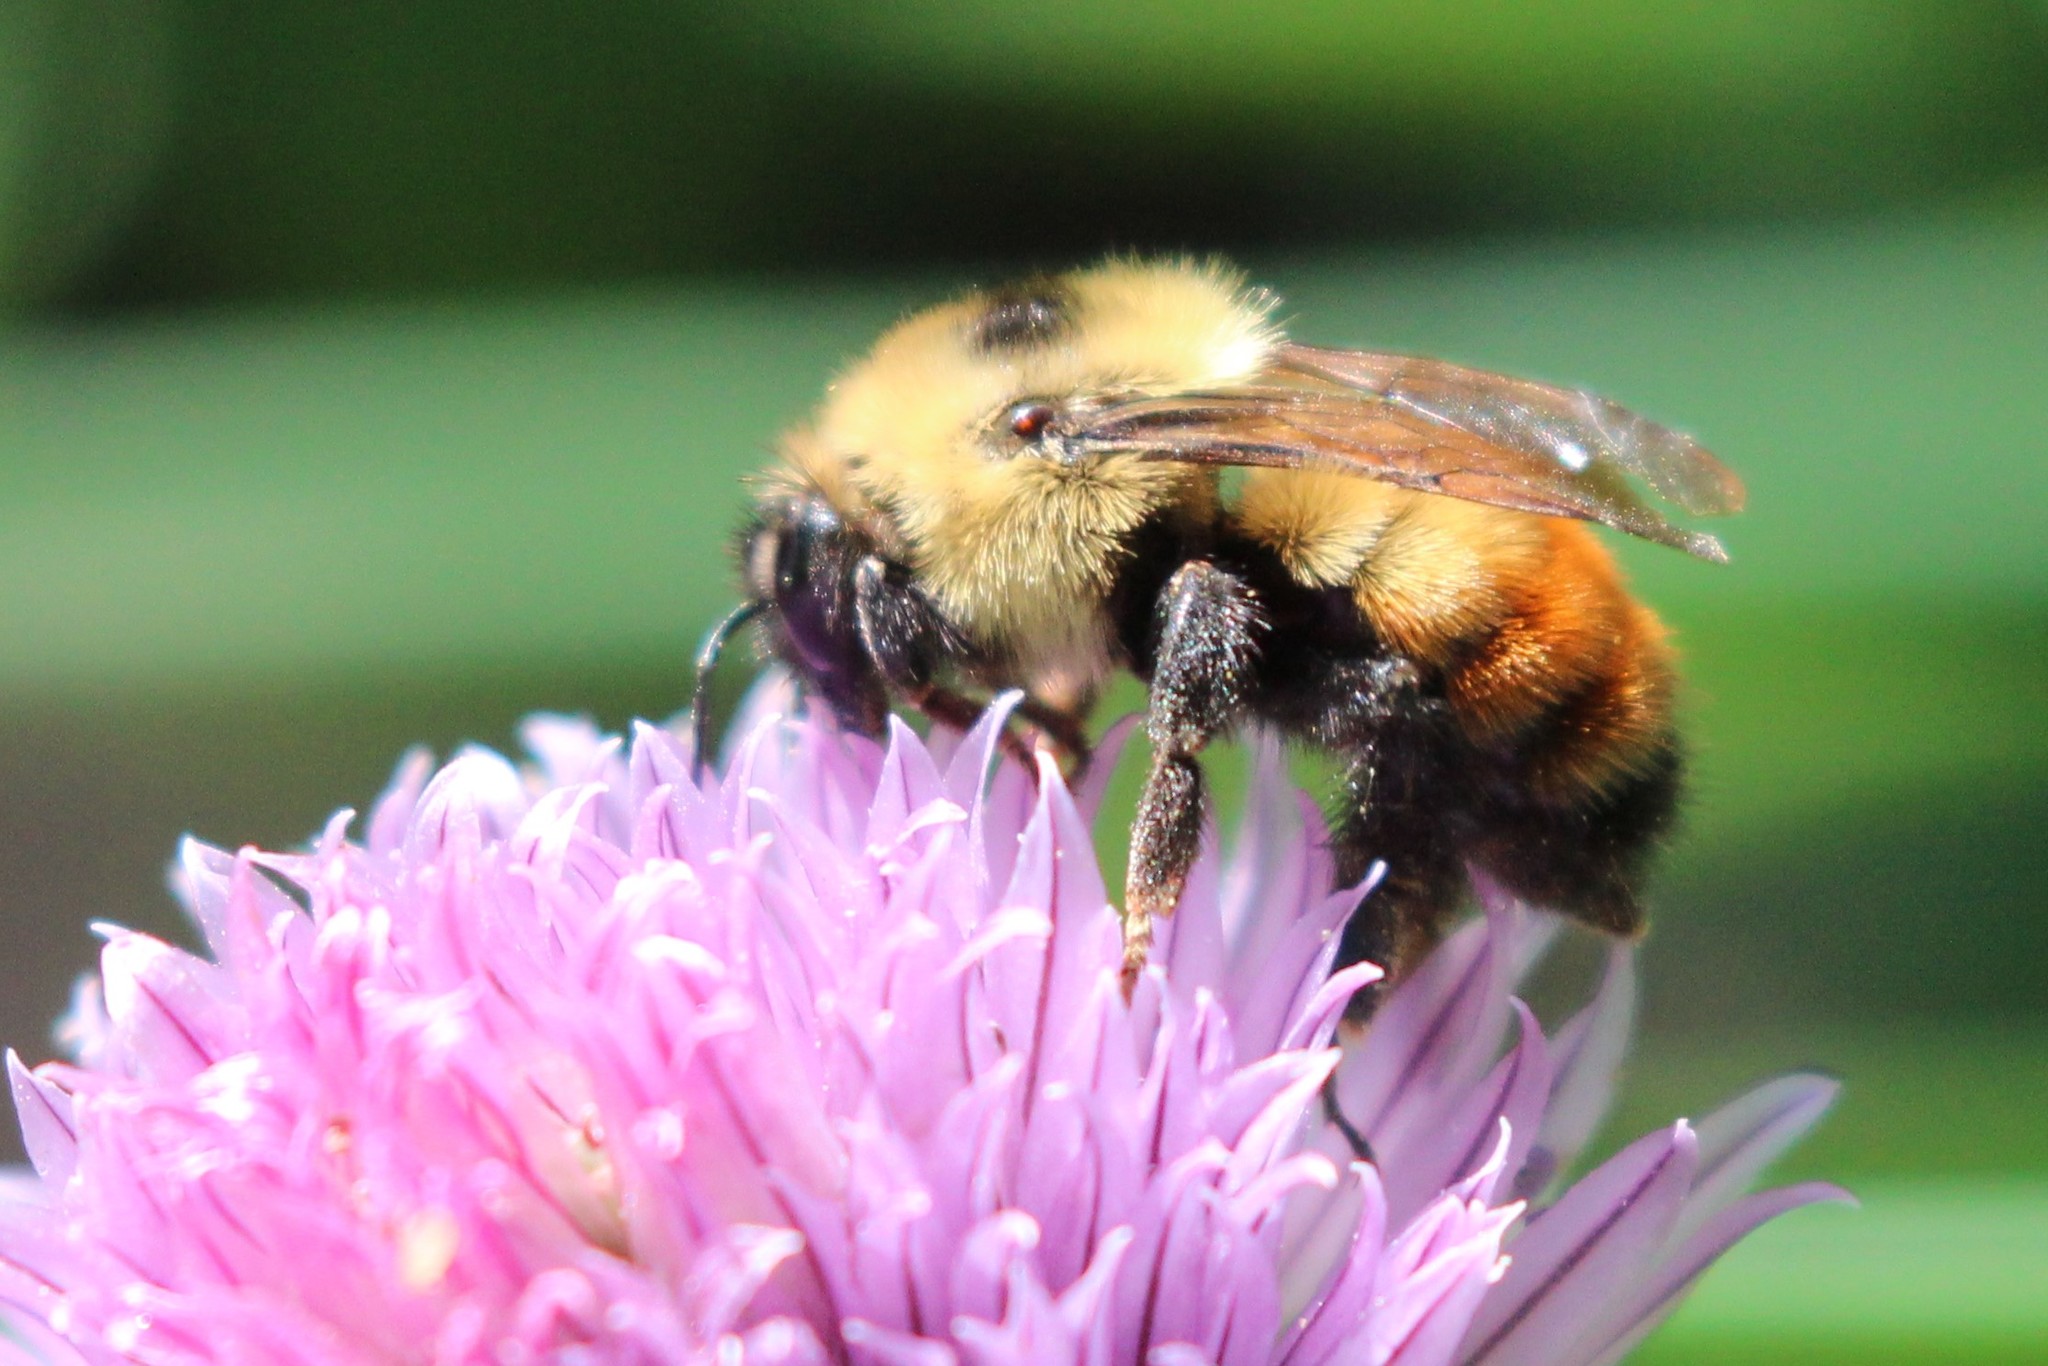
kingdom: Animalia
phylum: Arthropoda
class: Insecta
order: Hymenoptera
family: Apidae
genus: Bombus
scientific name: Bombus rufocinctus
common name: Red-belted bumble bee
